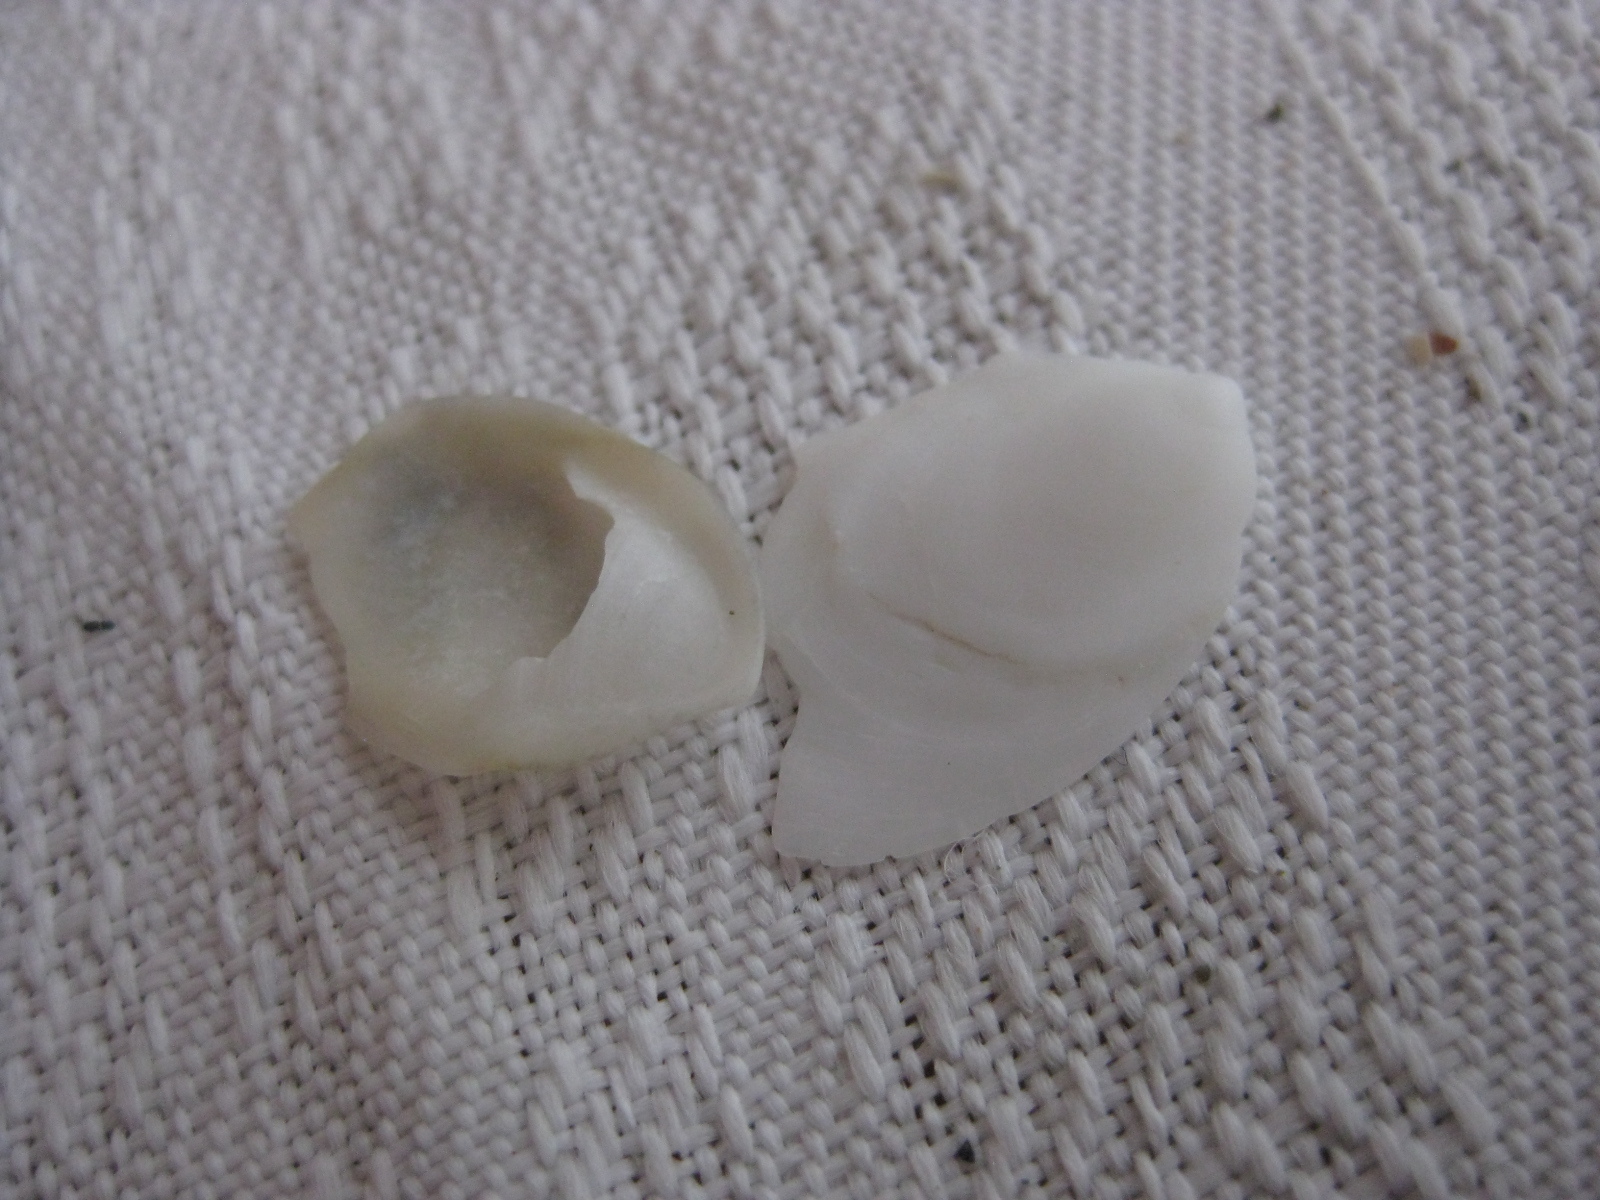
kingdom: Animalia
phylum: Mollusca
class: Gastropoda
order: Littorinimorpha
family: Calyptraeidae
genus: Maoricrypta
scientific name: Maoricrypta sodalis
